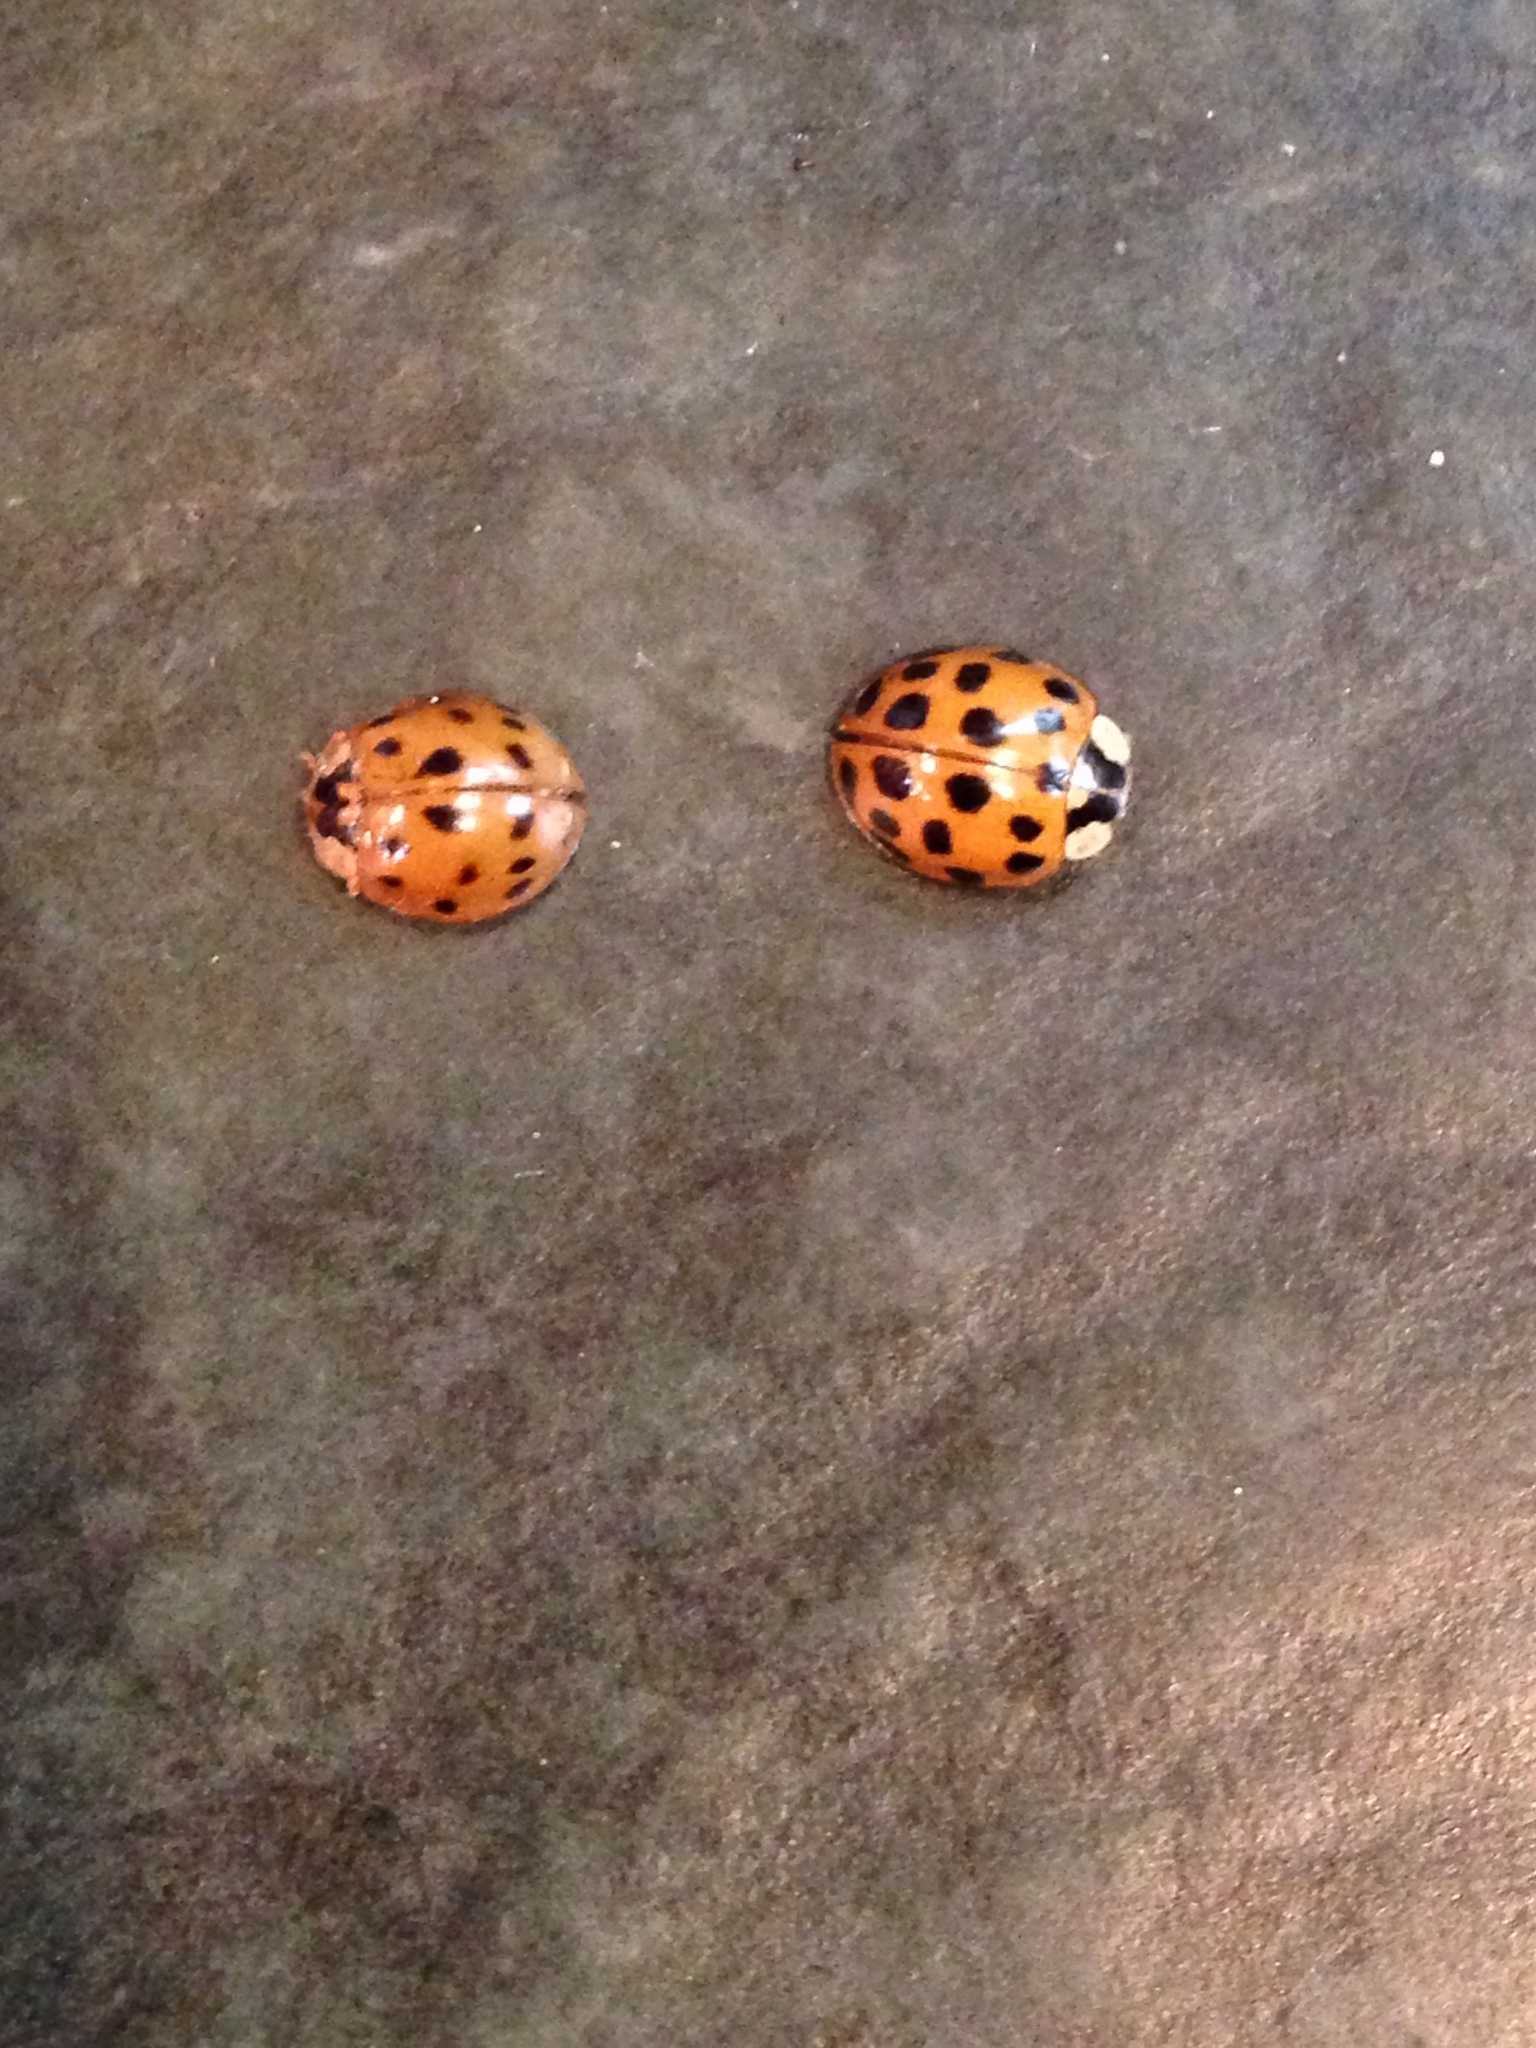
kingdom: Animalia
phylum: Arthropoda
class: Insecta
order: Coleoptera
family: Coccinellidae
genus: Harmonia
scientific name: Harmonia axyridis
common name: Harlequin ladybird
